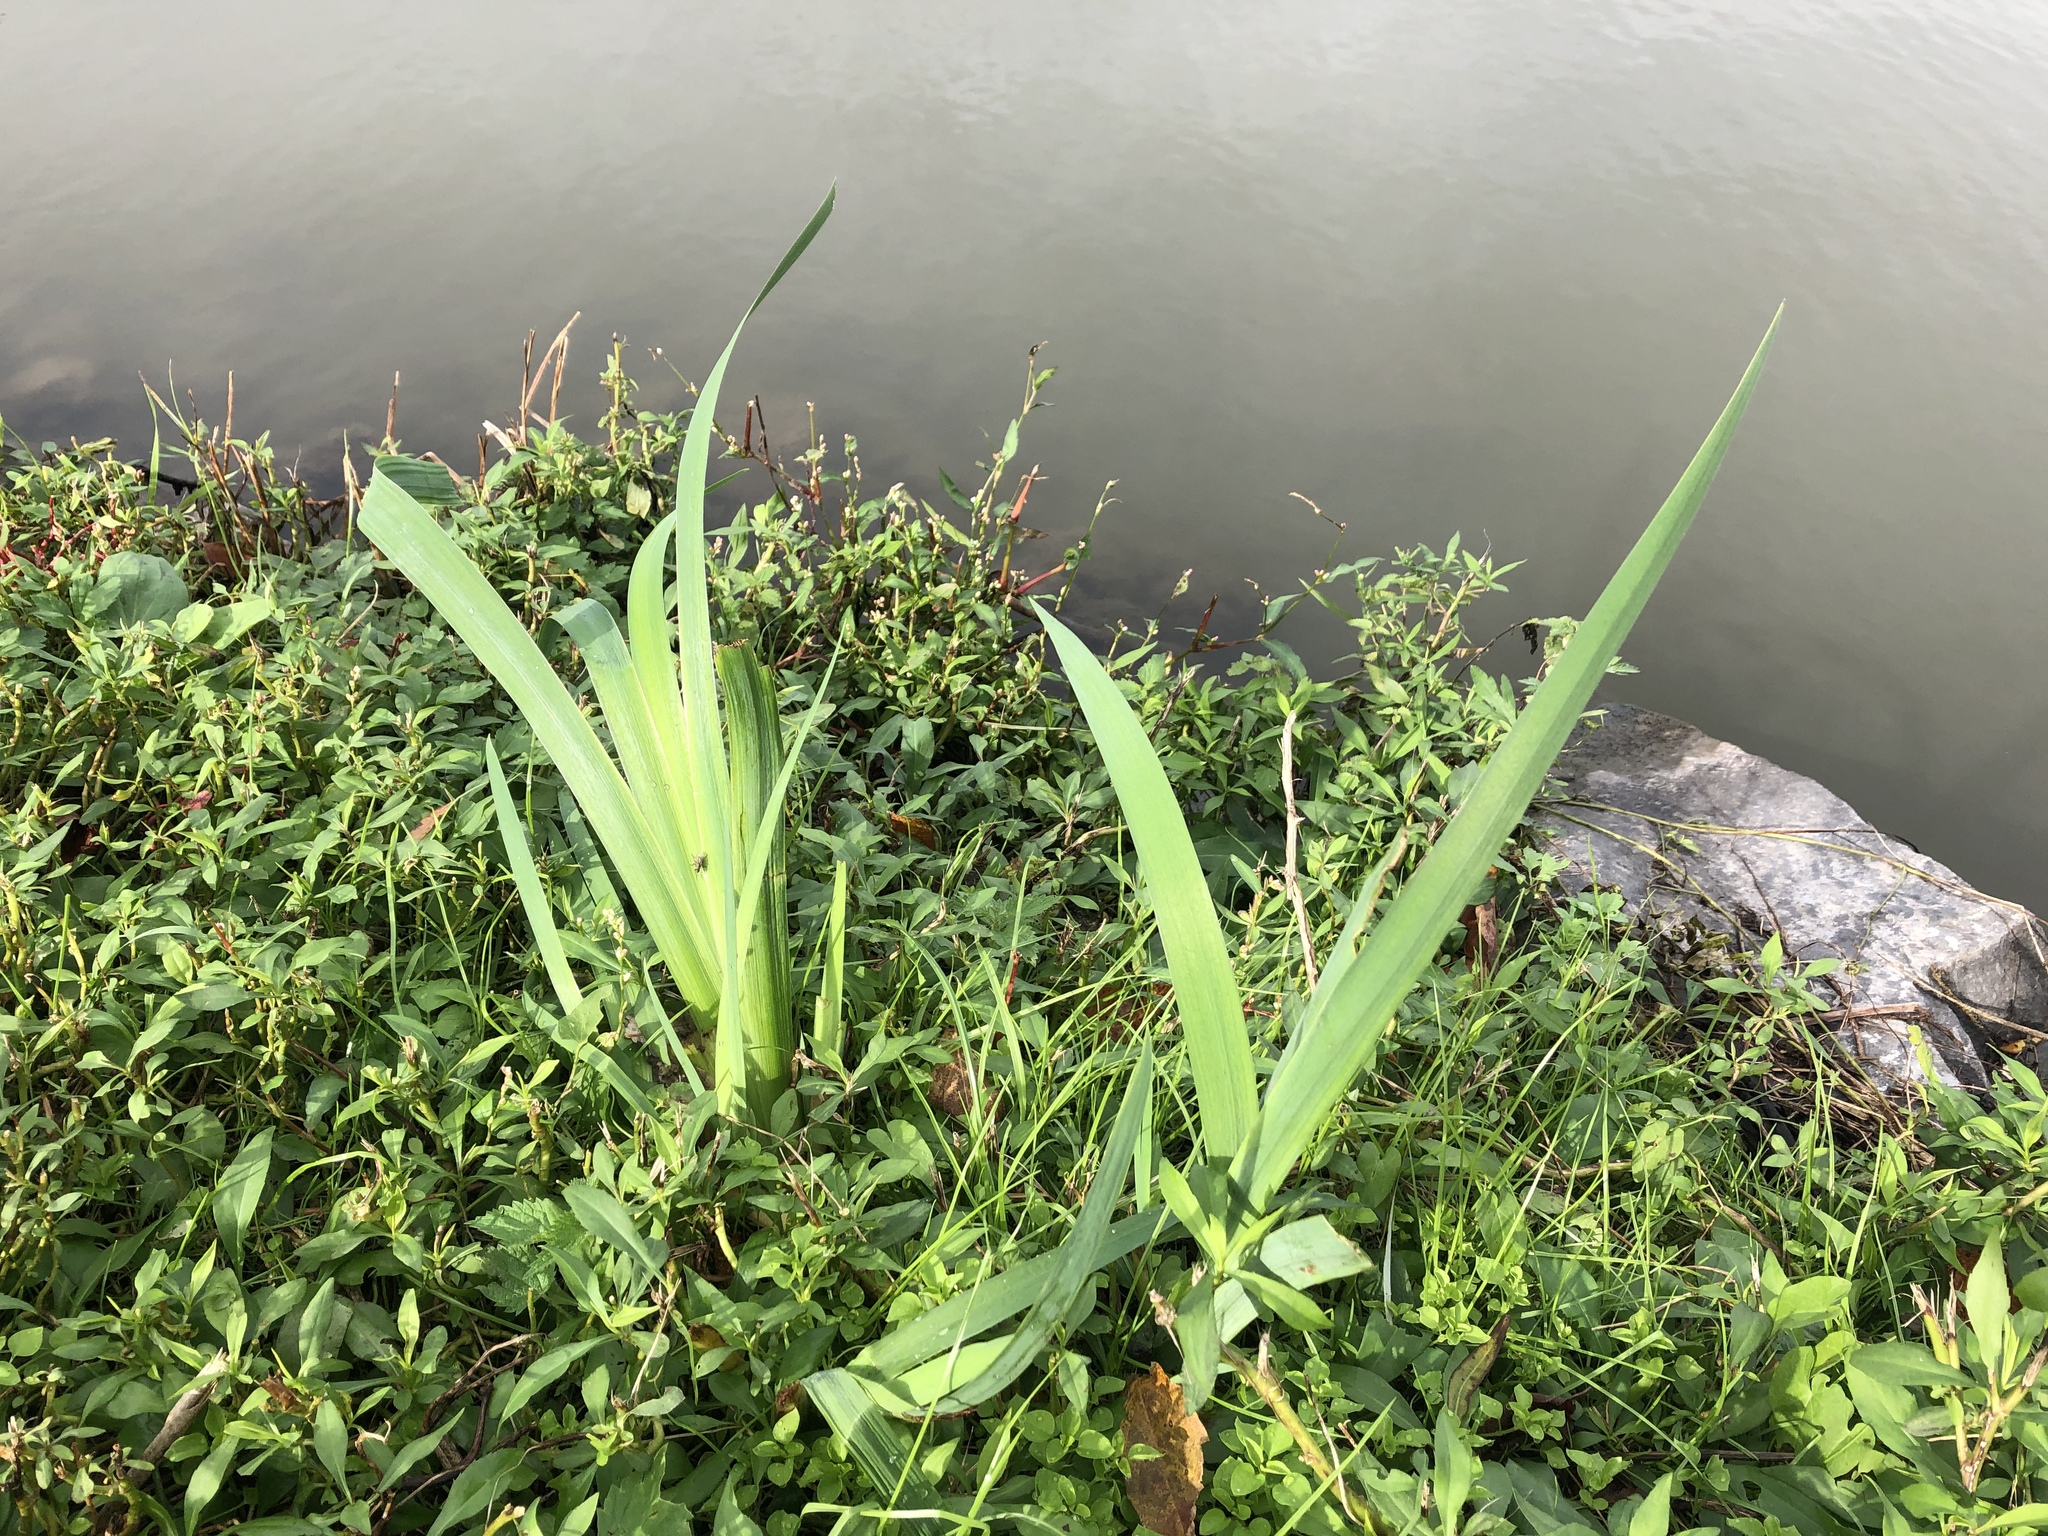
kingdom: Plantae
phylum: Tracheophyta
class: Liliopsida
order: Asparagales
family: Iridaceae
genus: Iris
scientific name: Iris pseudacorus
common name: Yellow flag
